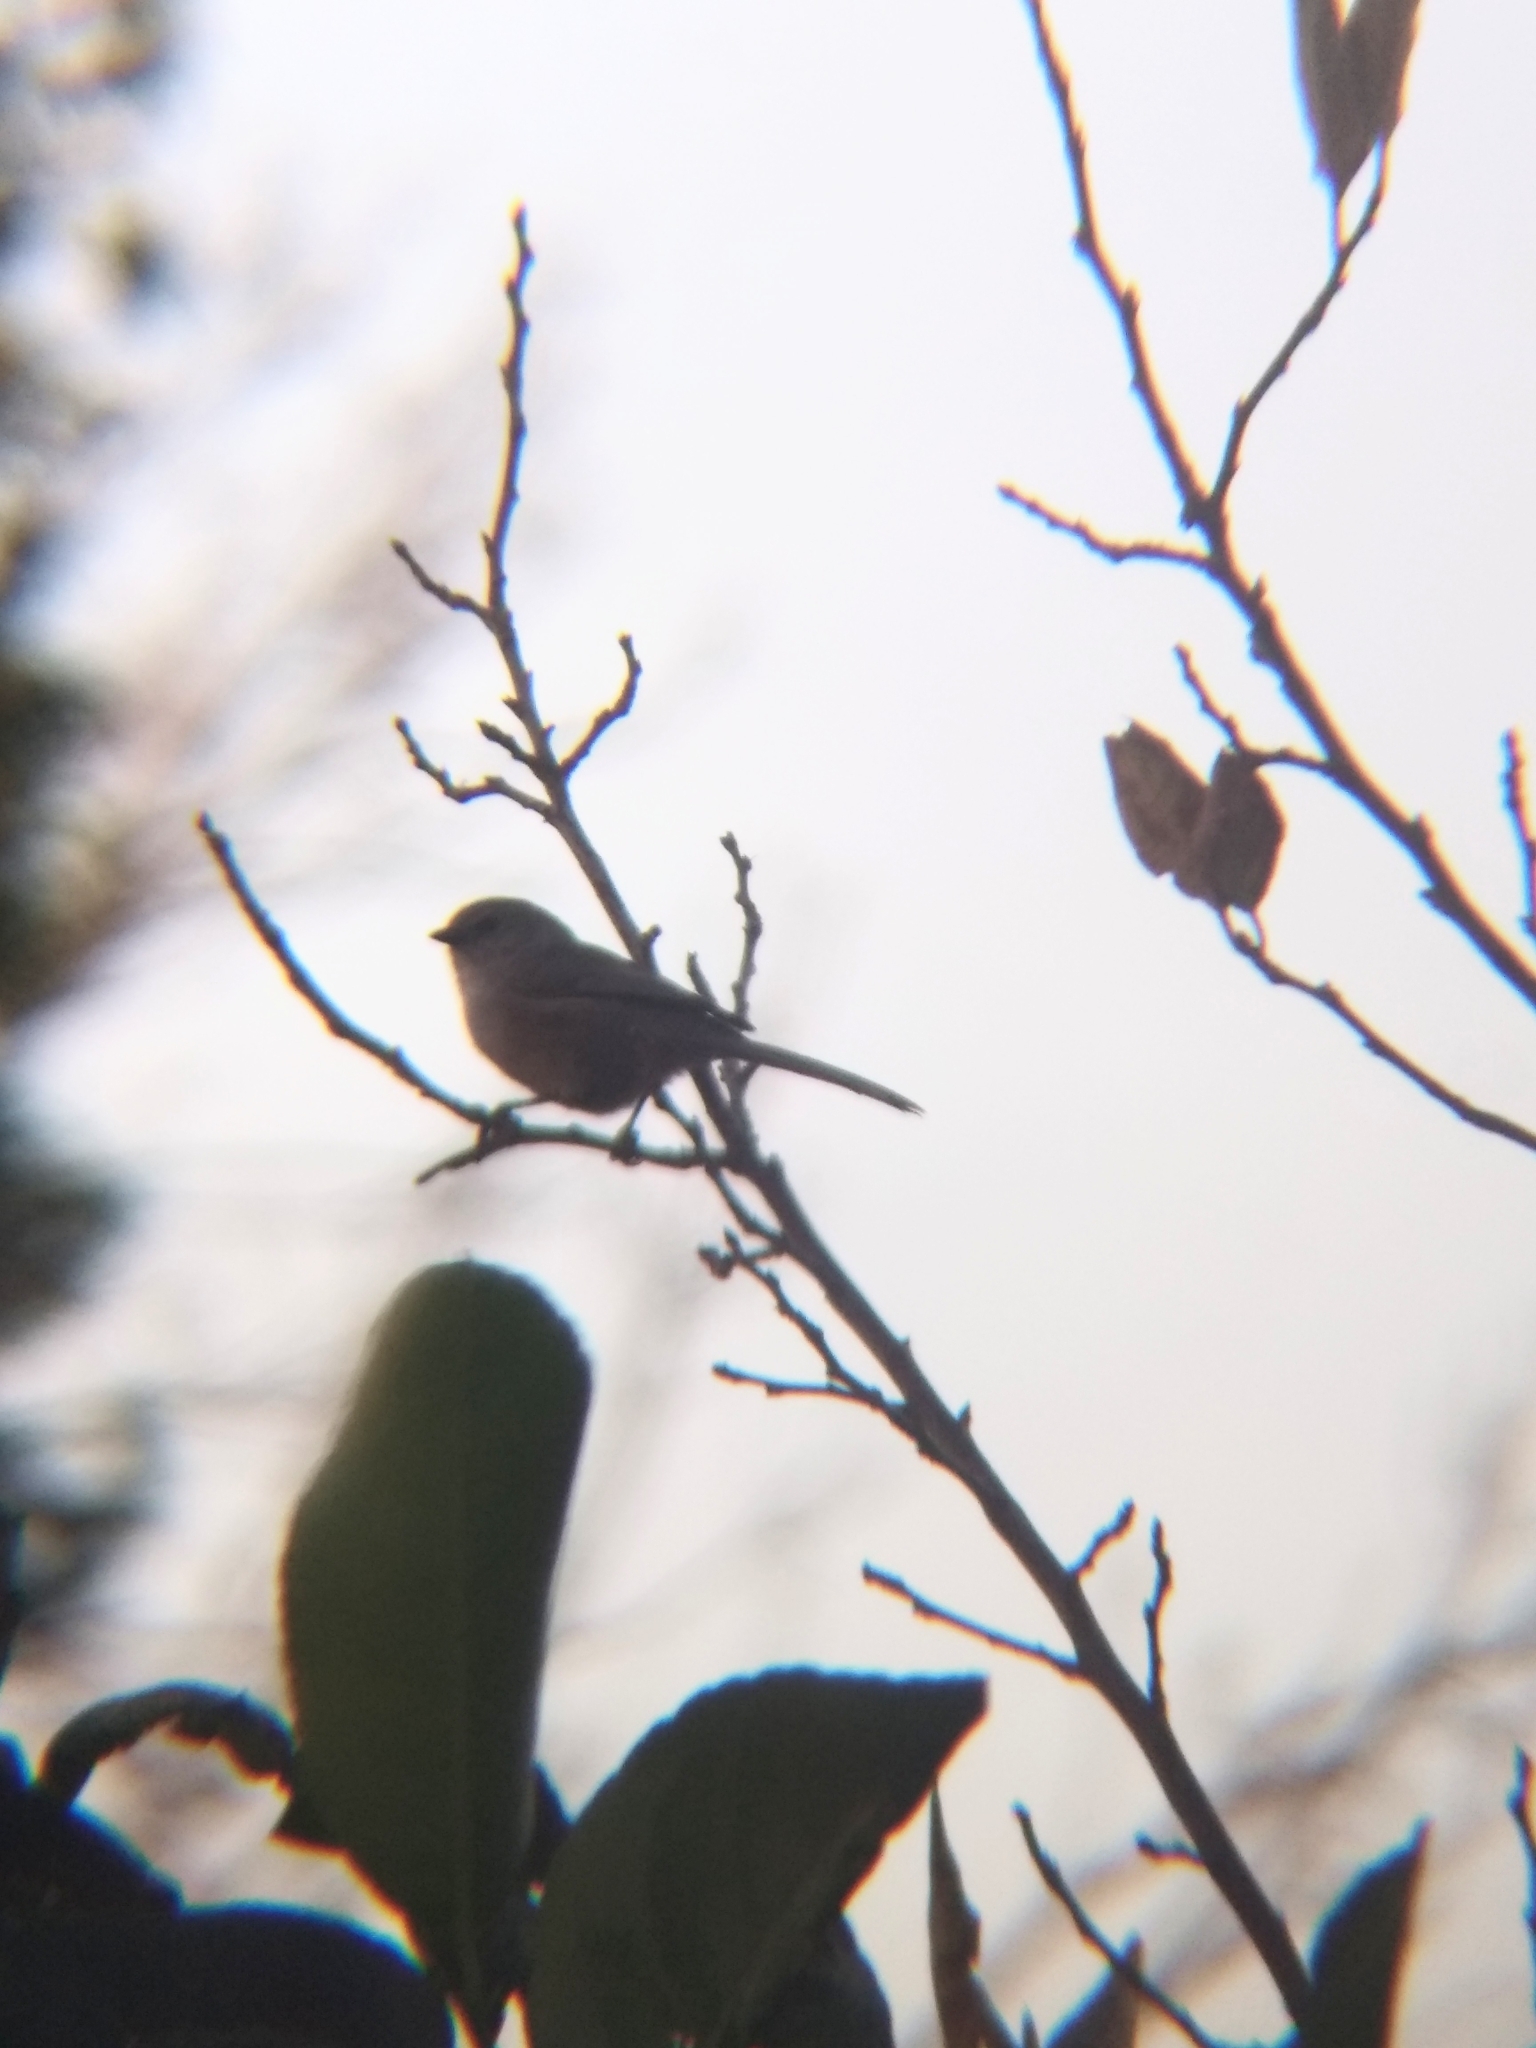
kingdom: Animalia
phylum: Chordata
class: Aves
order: Passeriformes
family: Aegithalidae
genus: Psaltriparus
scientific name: Psaltriparus minimus
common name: American bushtit
